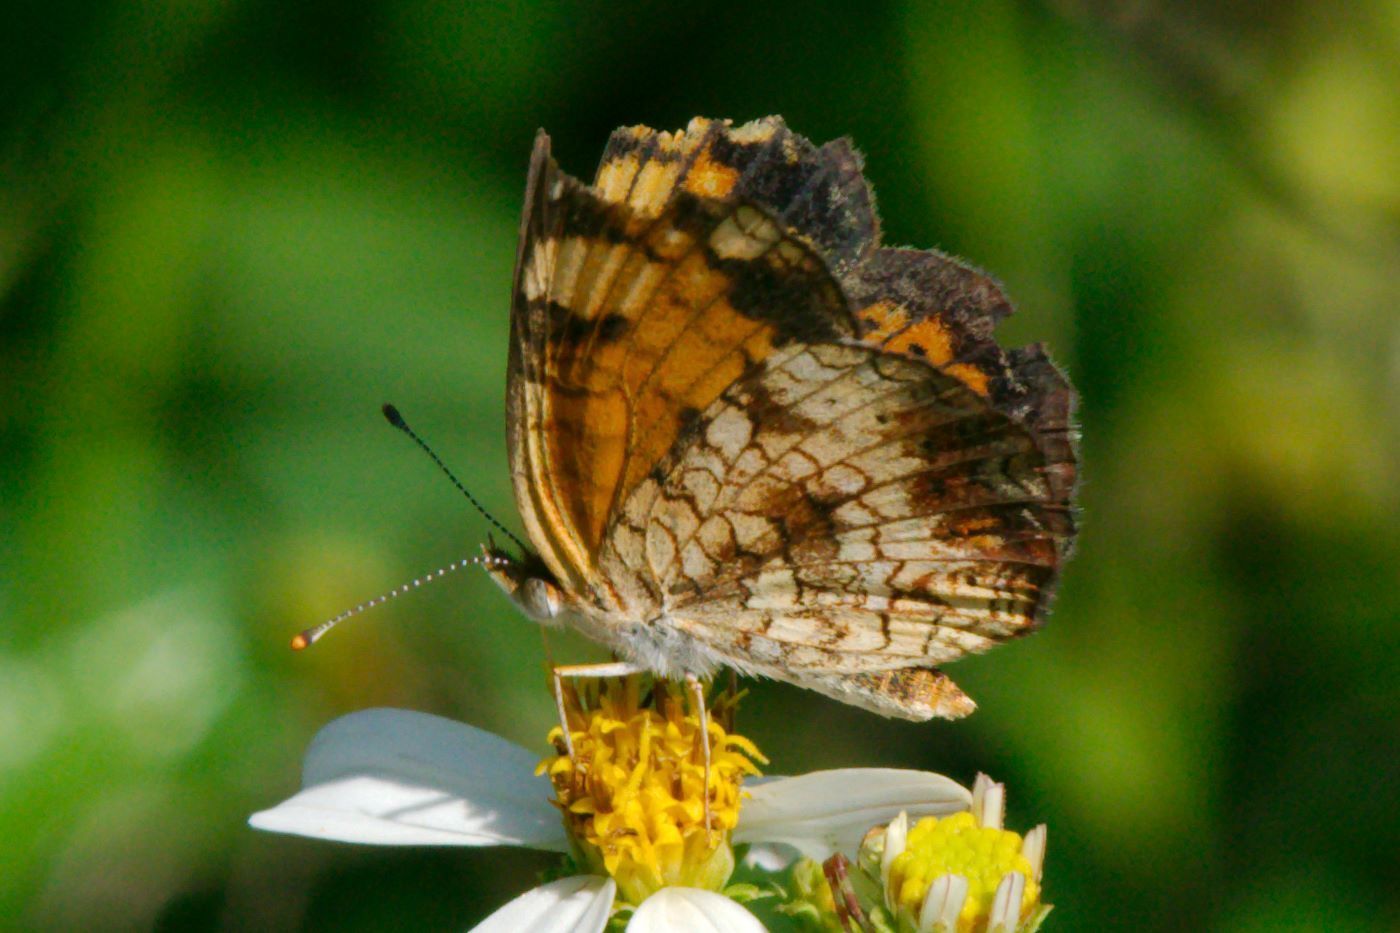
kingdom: Animalia
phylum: Arthropoda
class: Insecta
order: Lepidoptera
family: Nymphalidae
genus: Phyciodes
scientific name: Phyciodes tharos
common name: Pearl crescent
